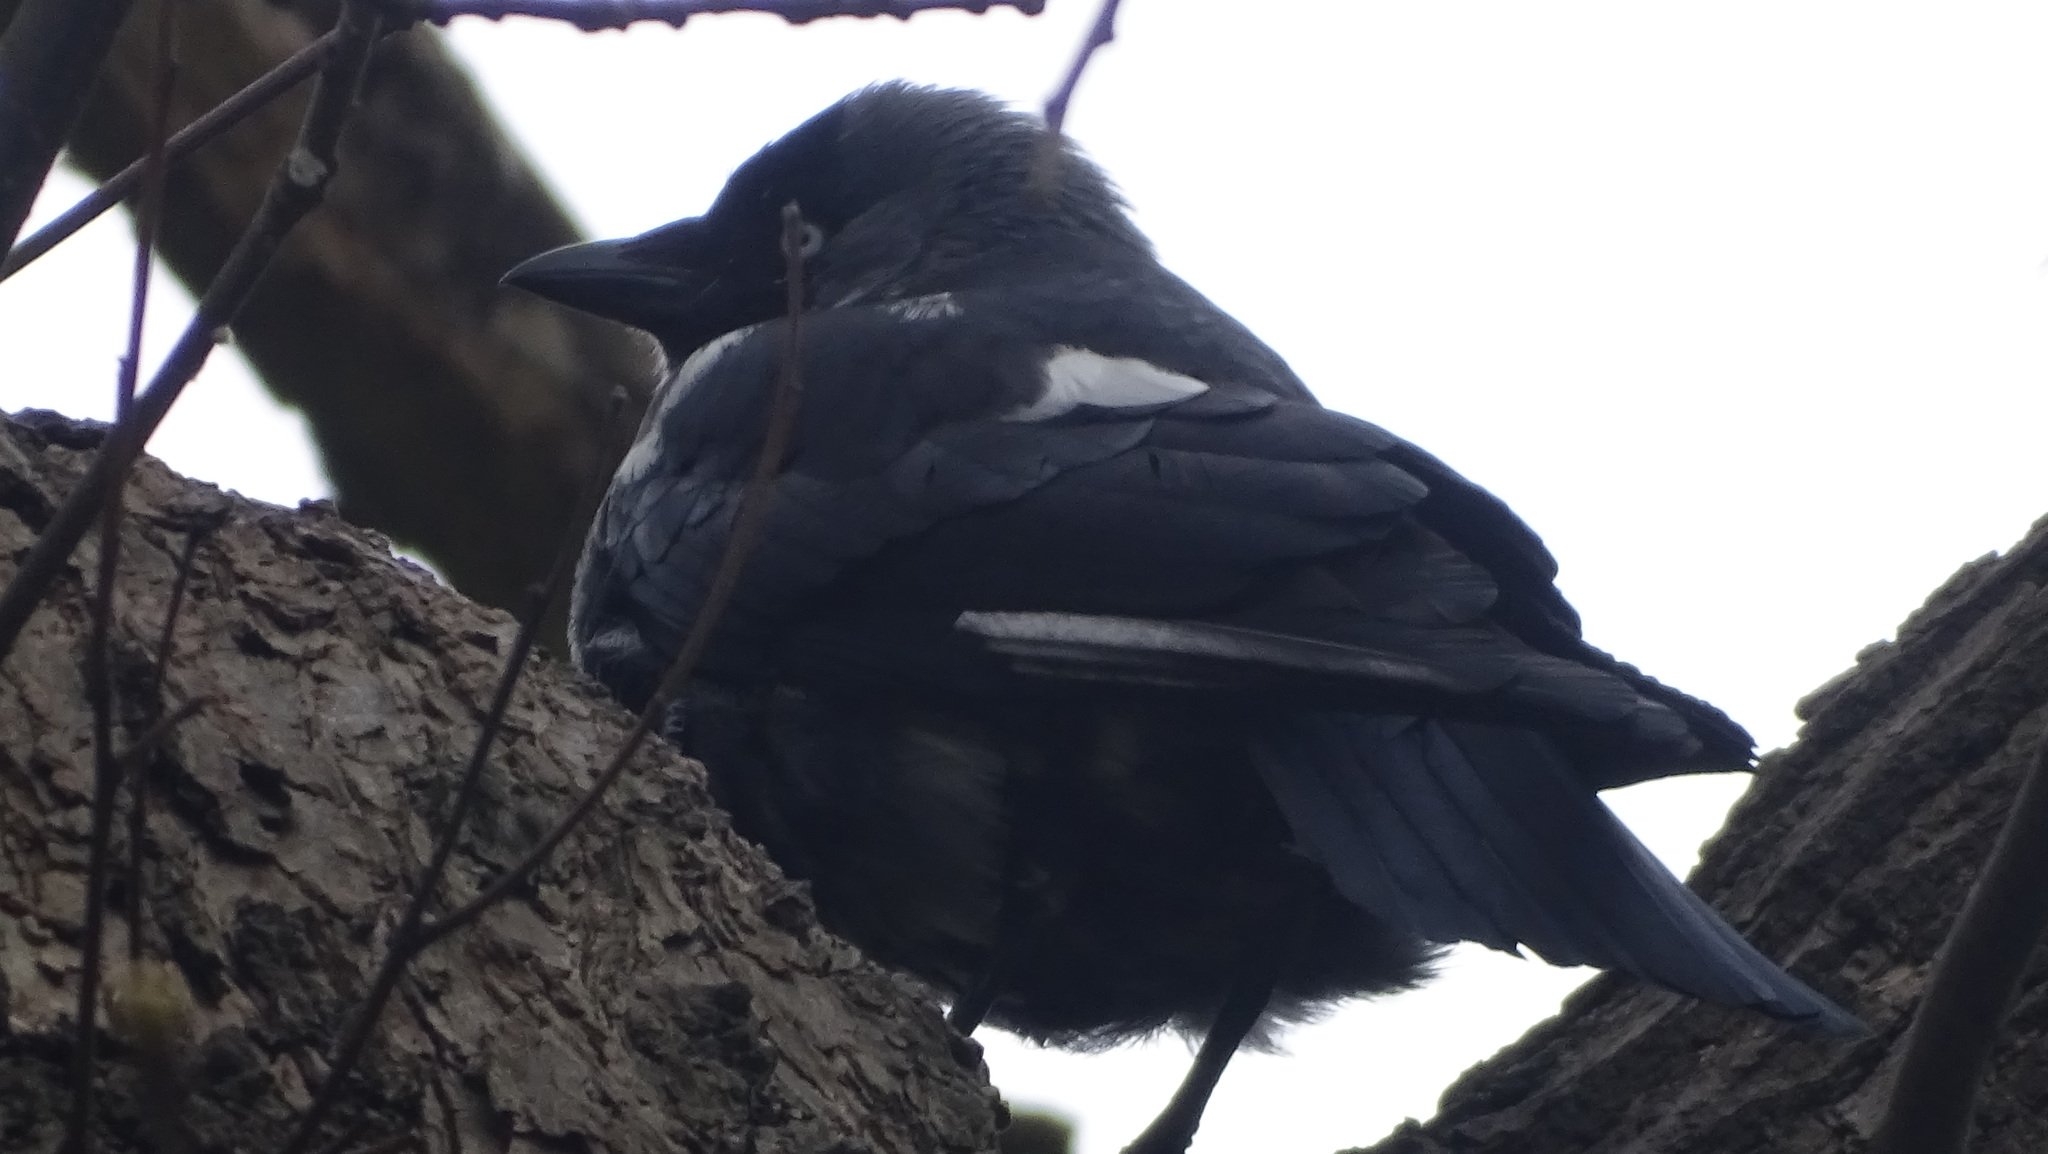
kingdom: Animalia
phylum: Chordata
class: Aves
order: Passeriformes
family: Corvidae
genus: Coloeus
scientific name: Coloeus monedula
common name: Western jackdaw
